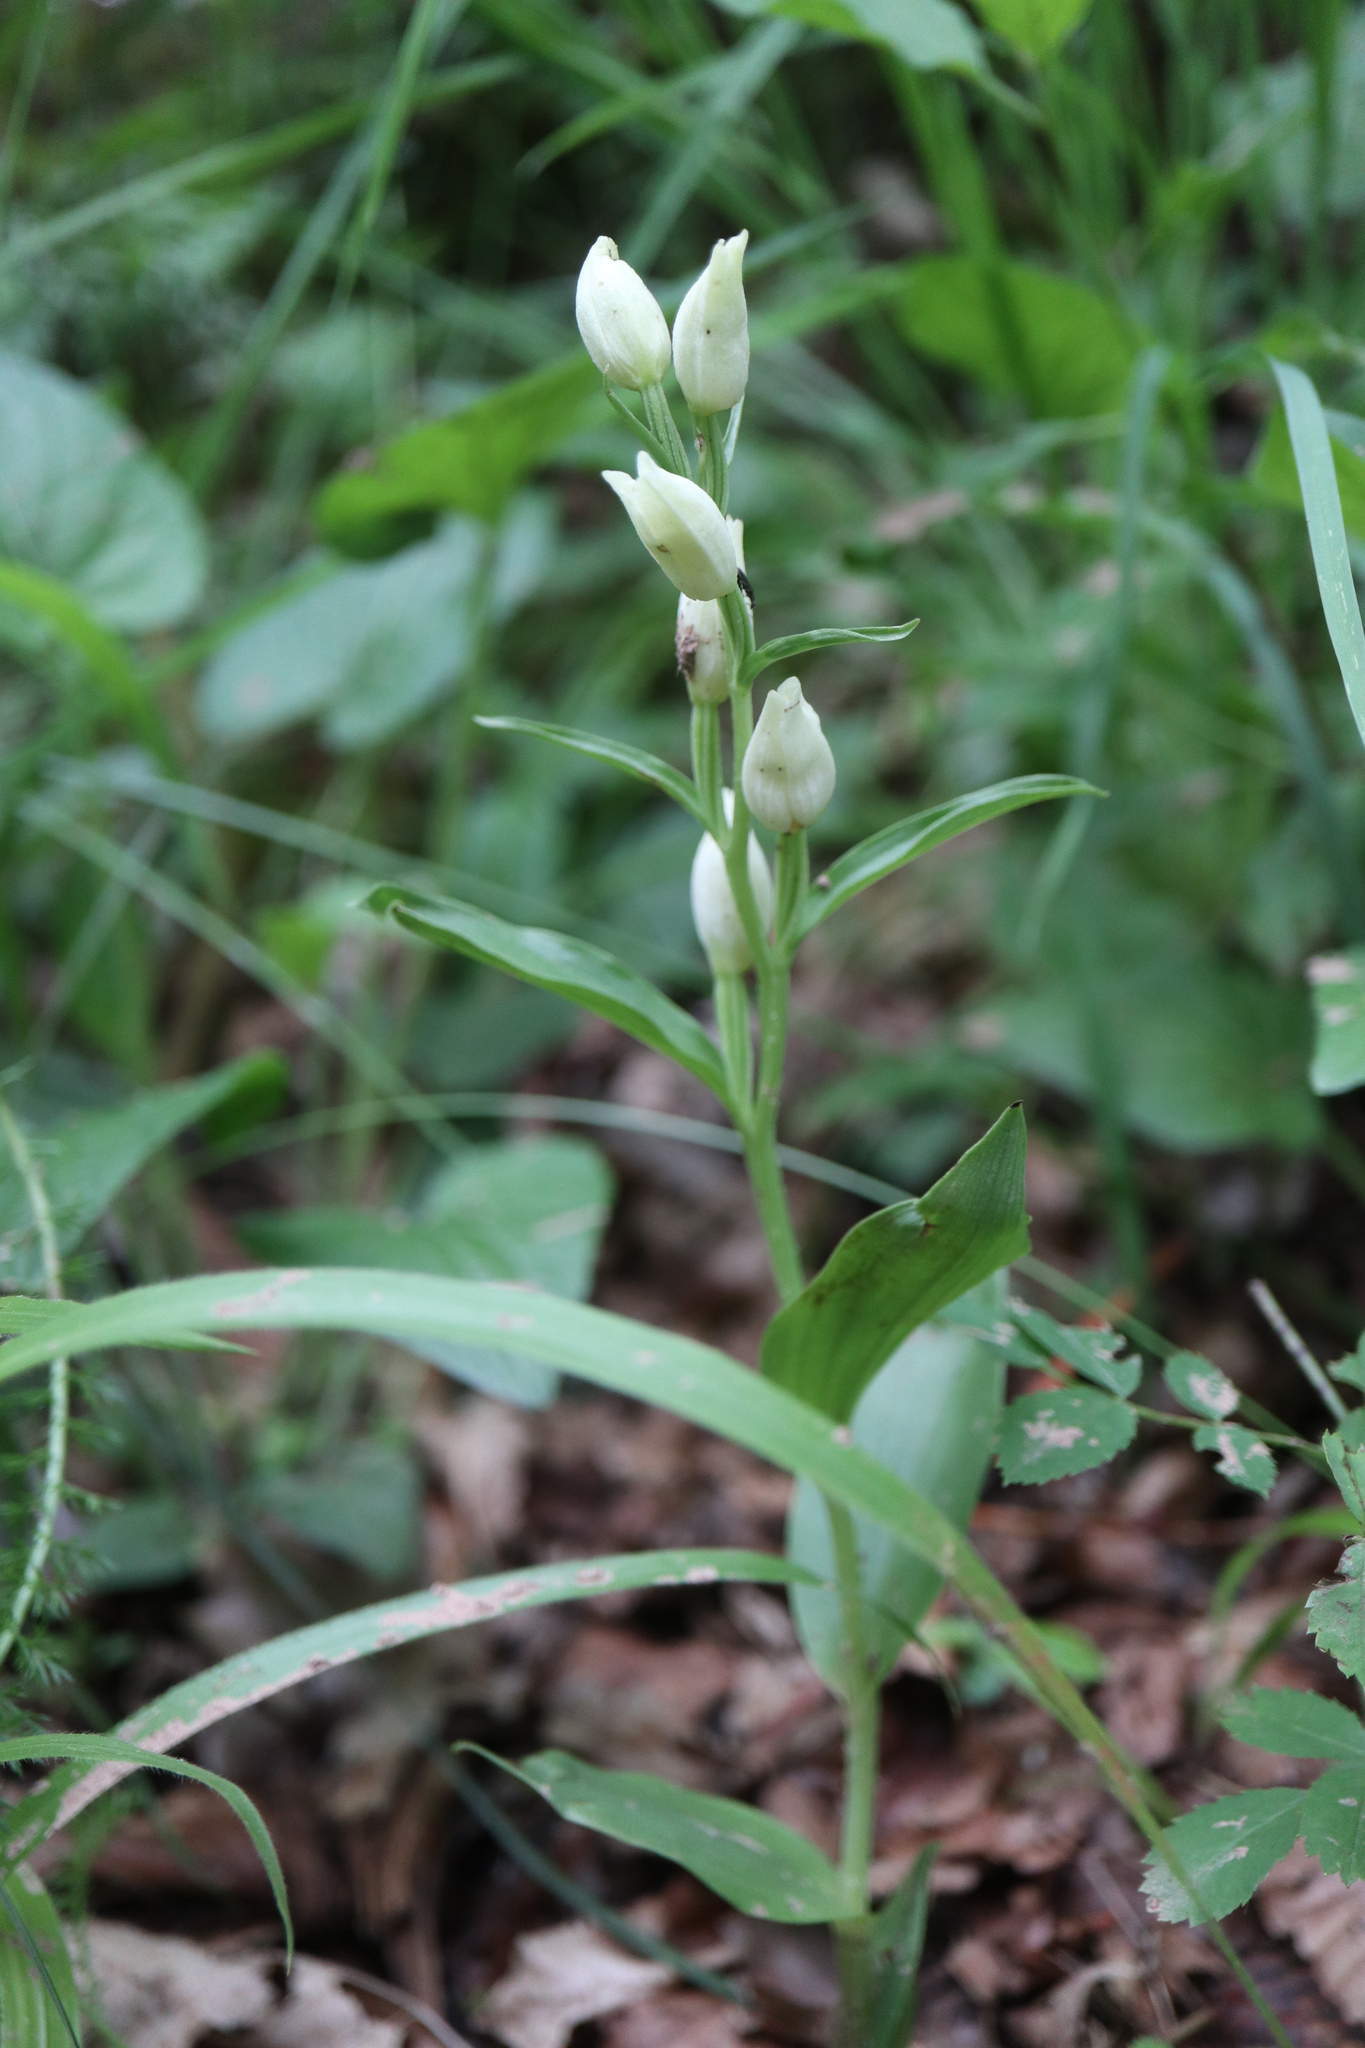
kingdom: Plantae
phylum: Tracheophyta
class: Liliopsida
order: Asparagales
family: Orchidaceae
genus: Cephalanthera
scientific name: Cephalanthera damasonium
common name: White helleborine
